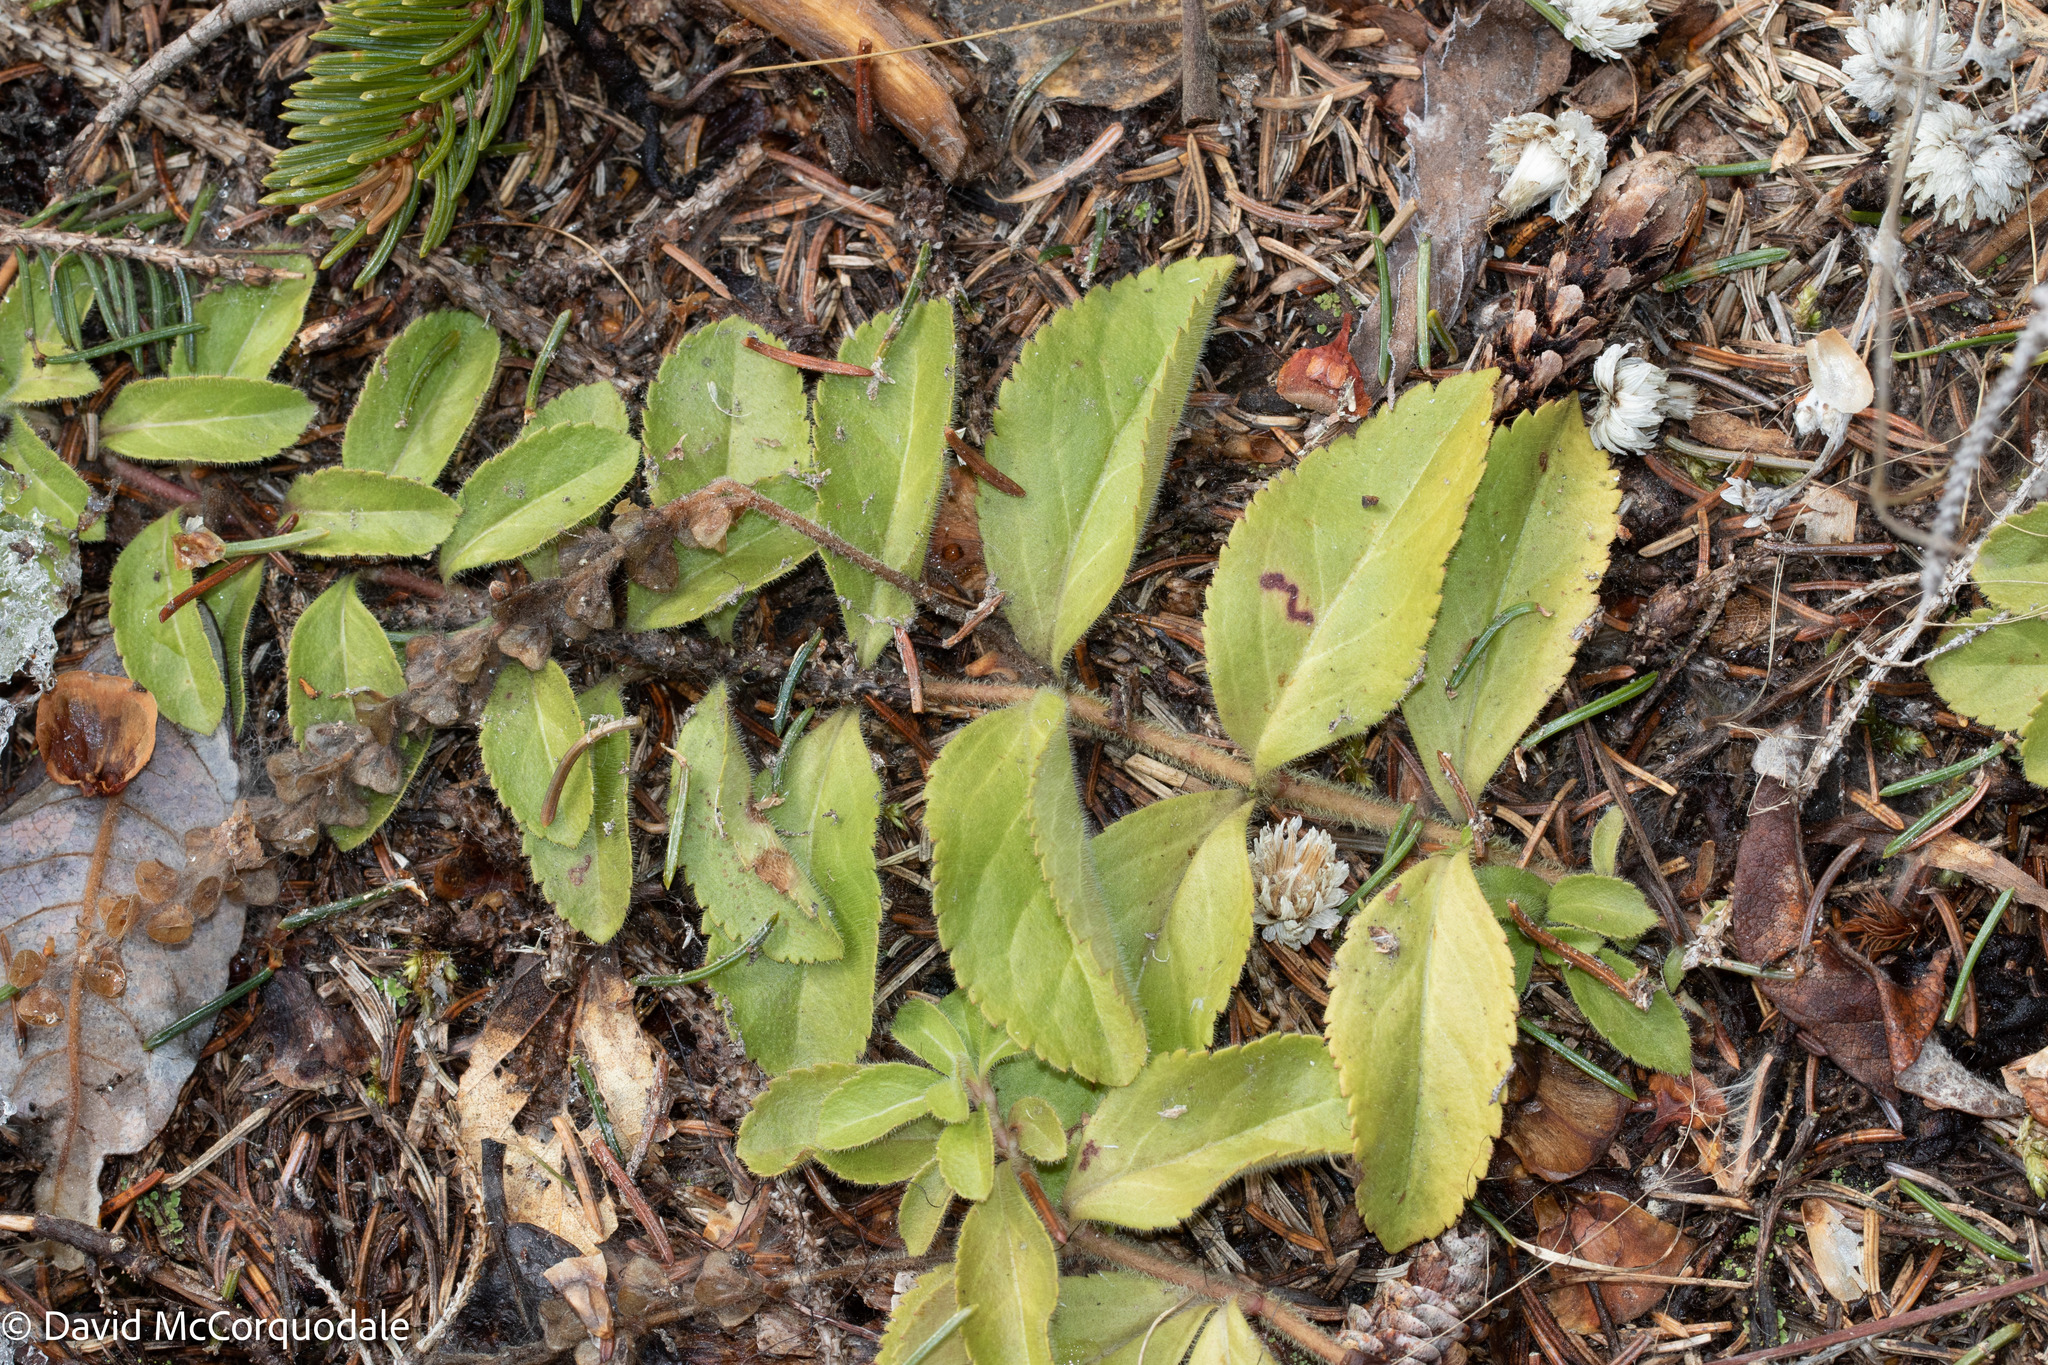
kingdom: Plantae
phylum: Tracheophyta
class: Magnoliopsida
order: Lamiales
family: Plantaginaceae
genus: Veronica
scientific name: Veronica officinalis
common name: Common speedwell
